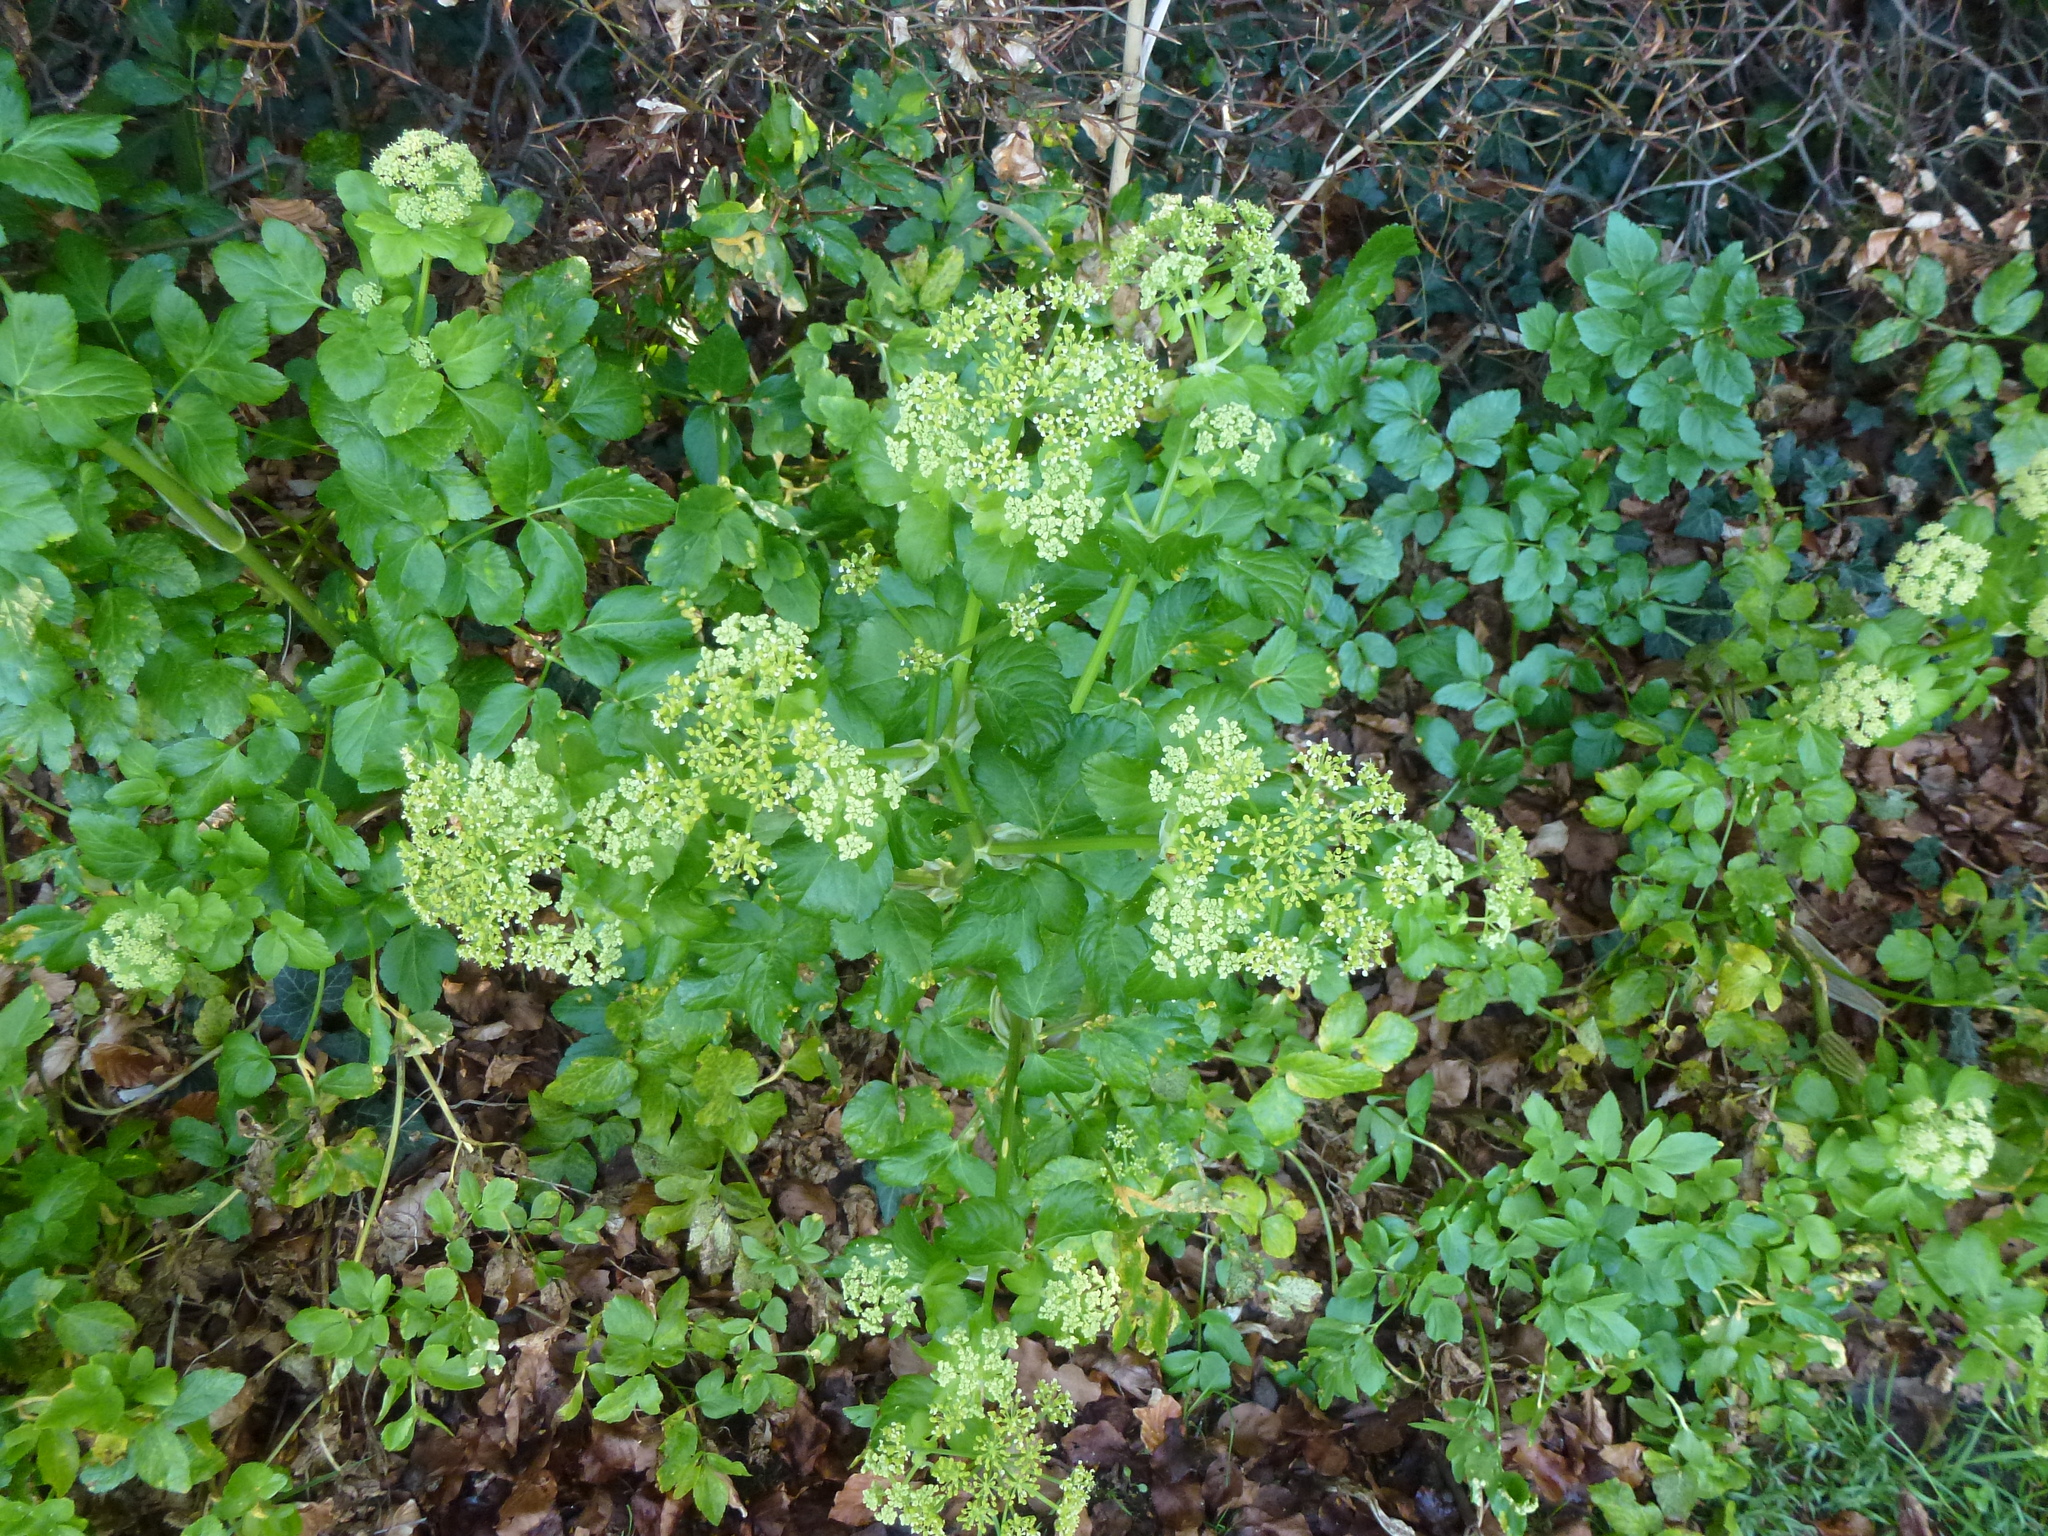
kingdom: Plantae
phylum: Tracheophyta
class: Magnoliopsida
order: Apiales
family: Apiaceae
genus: Smyrnium
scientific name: Smyrnium olusatrum
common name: Alexanders
